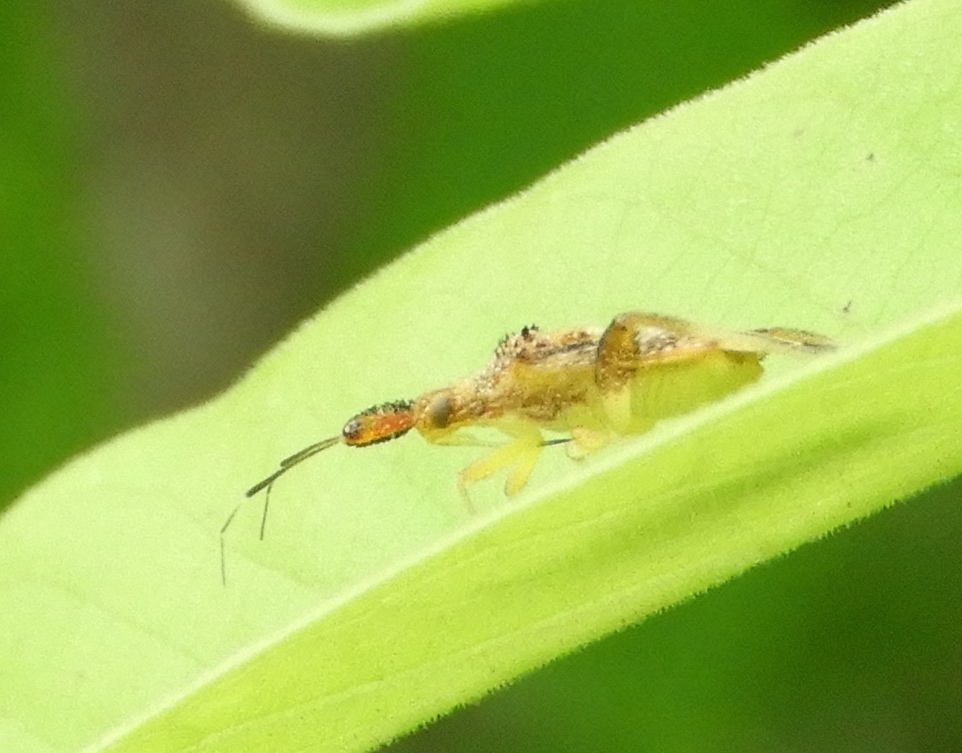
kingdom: Animalia
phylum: Arthropoda
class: Insecta
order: Hemiptera
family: Miridae
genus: Neurocolpus
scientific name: Neurocolpus
